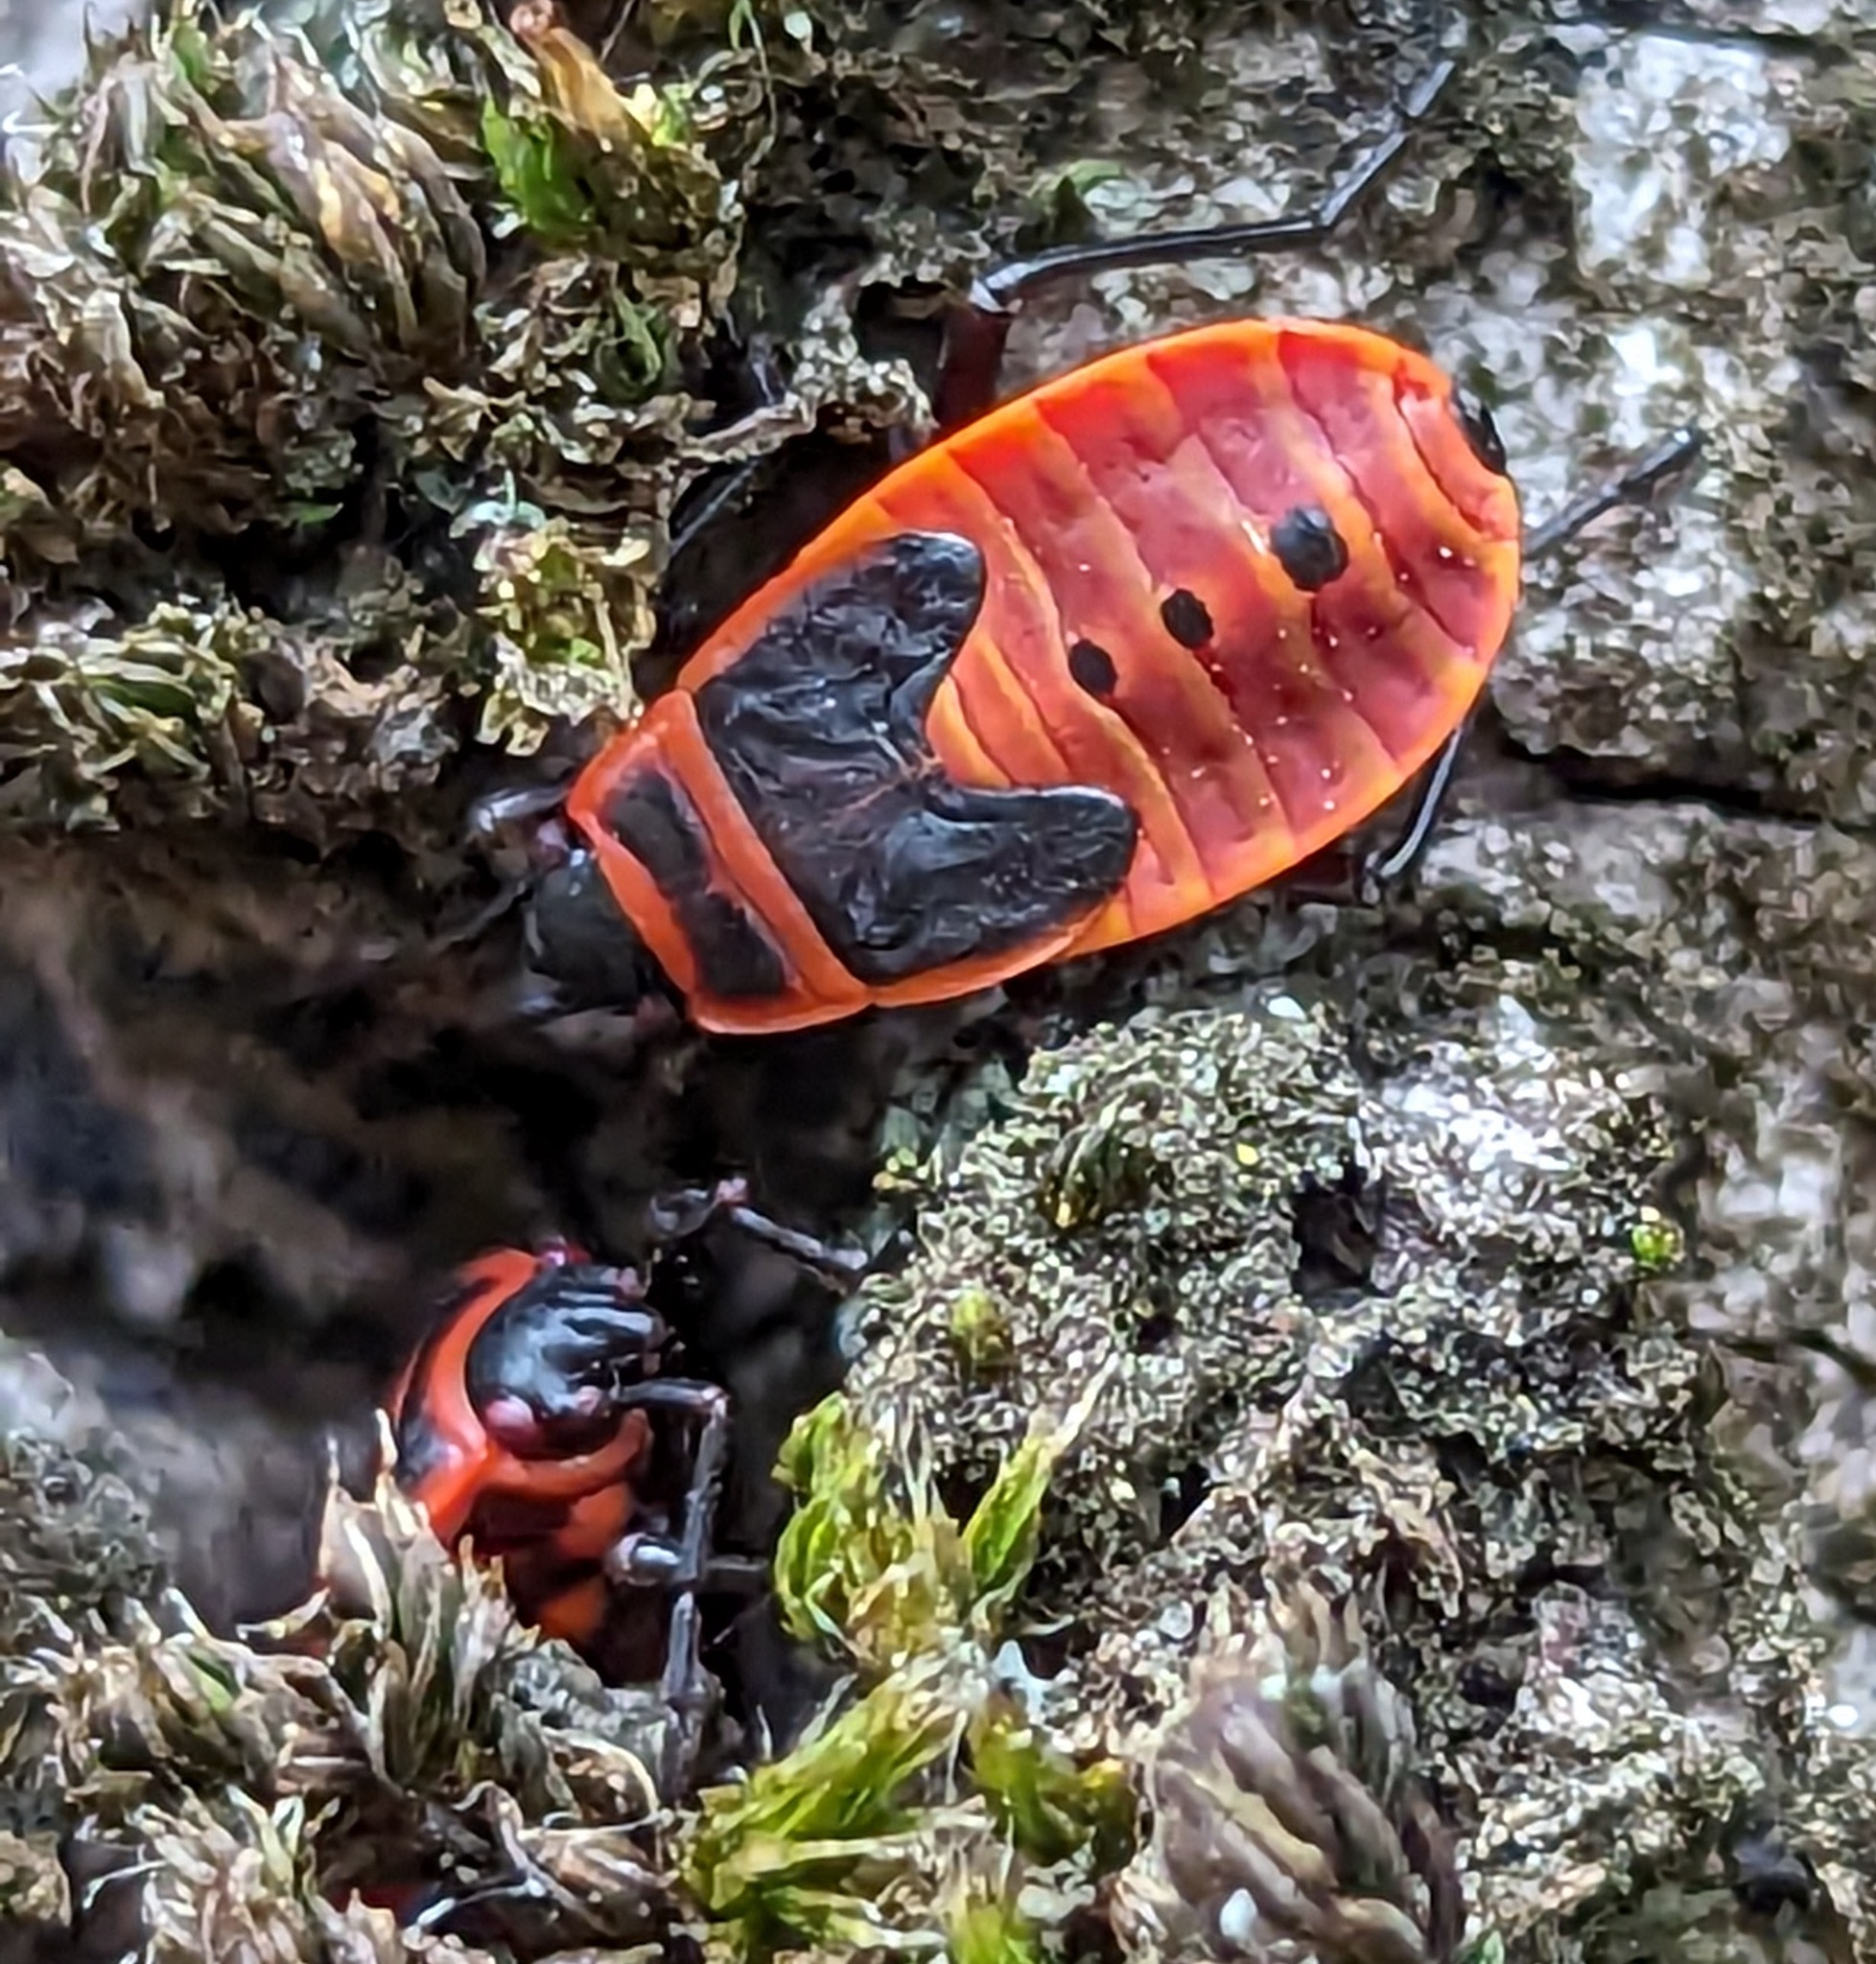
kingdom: Animalia
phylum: Arthropoda
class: Insecta
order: Hemiptera
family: Pyrrhocoridae
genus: Pyrrhocoris
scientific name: Pyrrhocoris apterus
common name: Firebug
